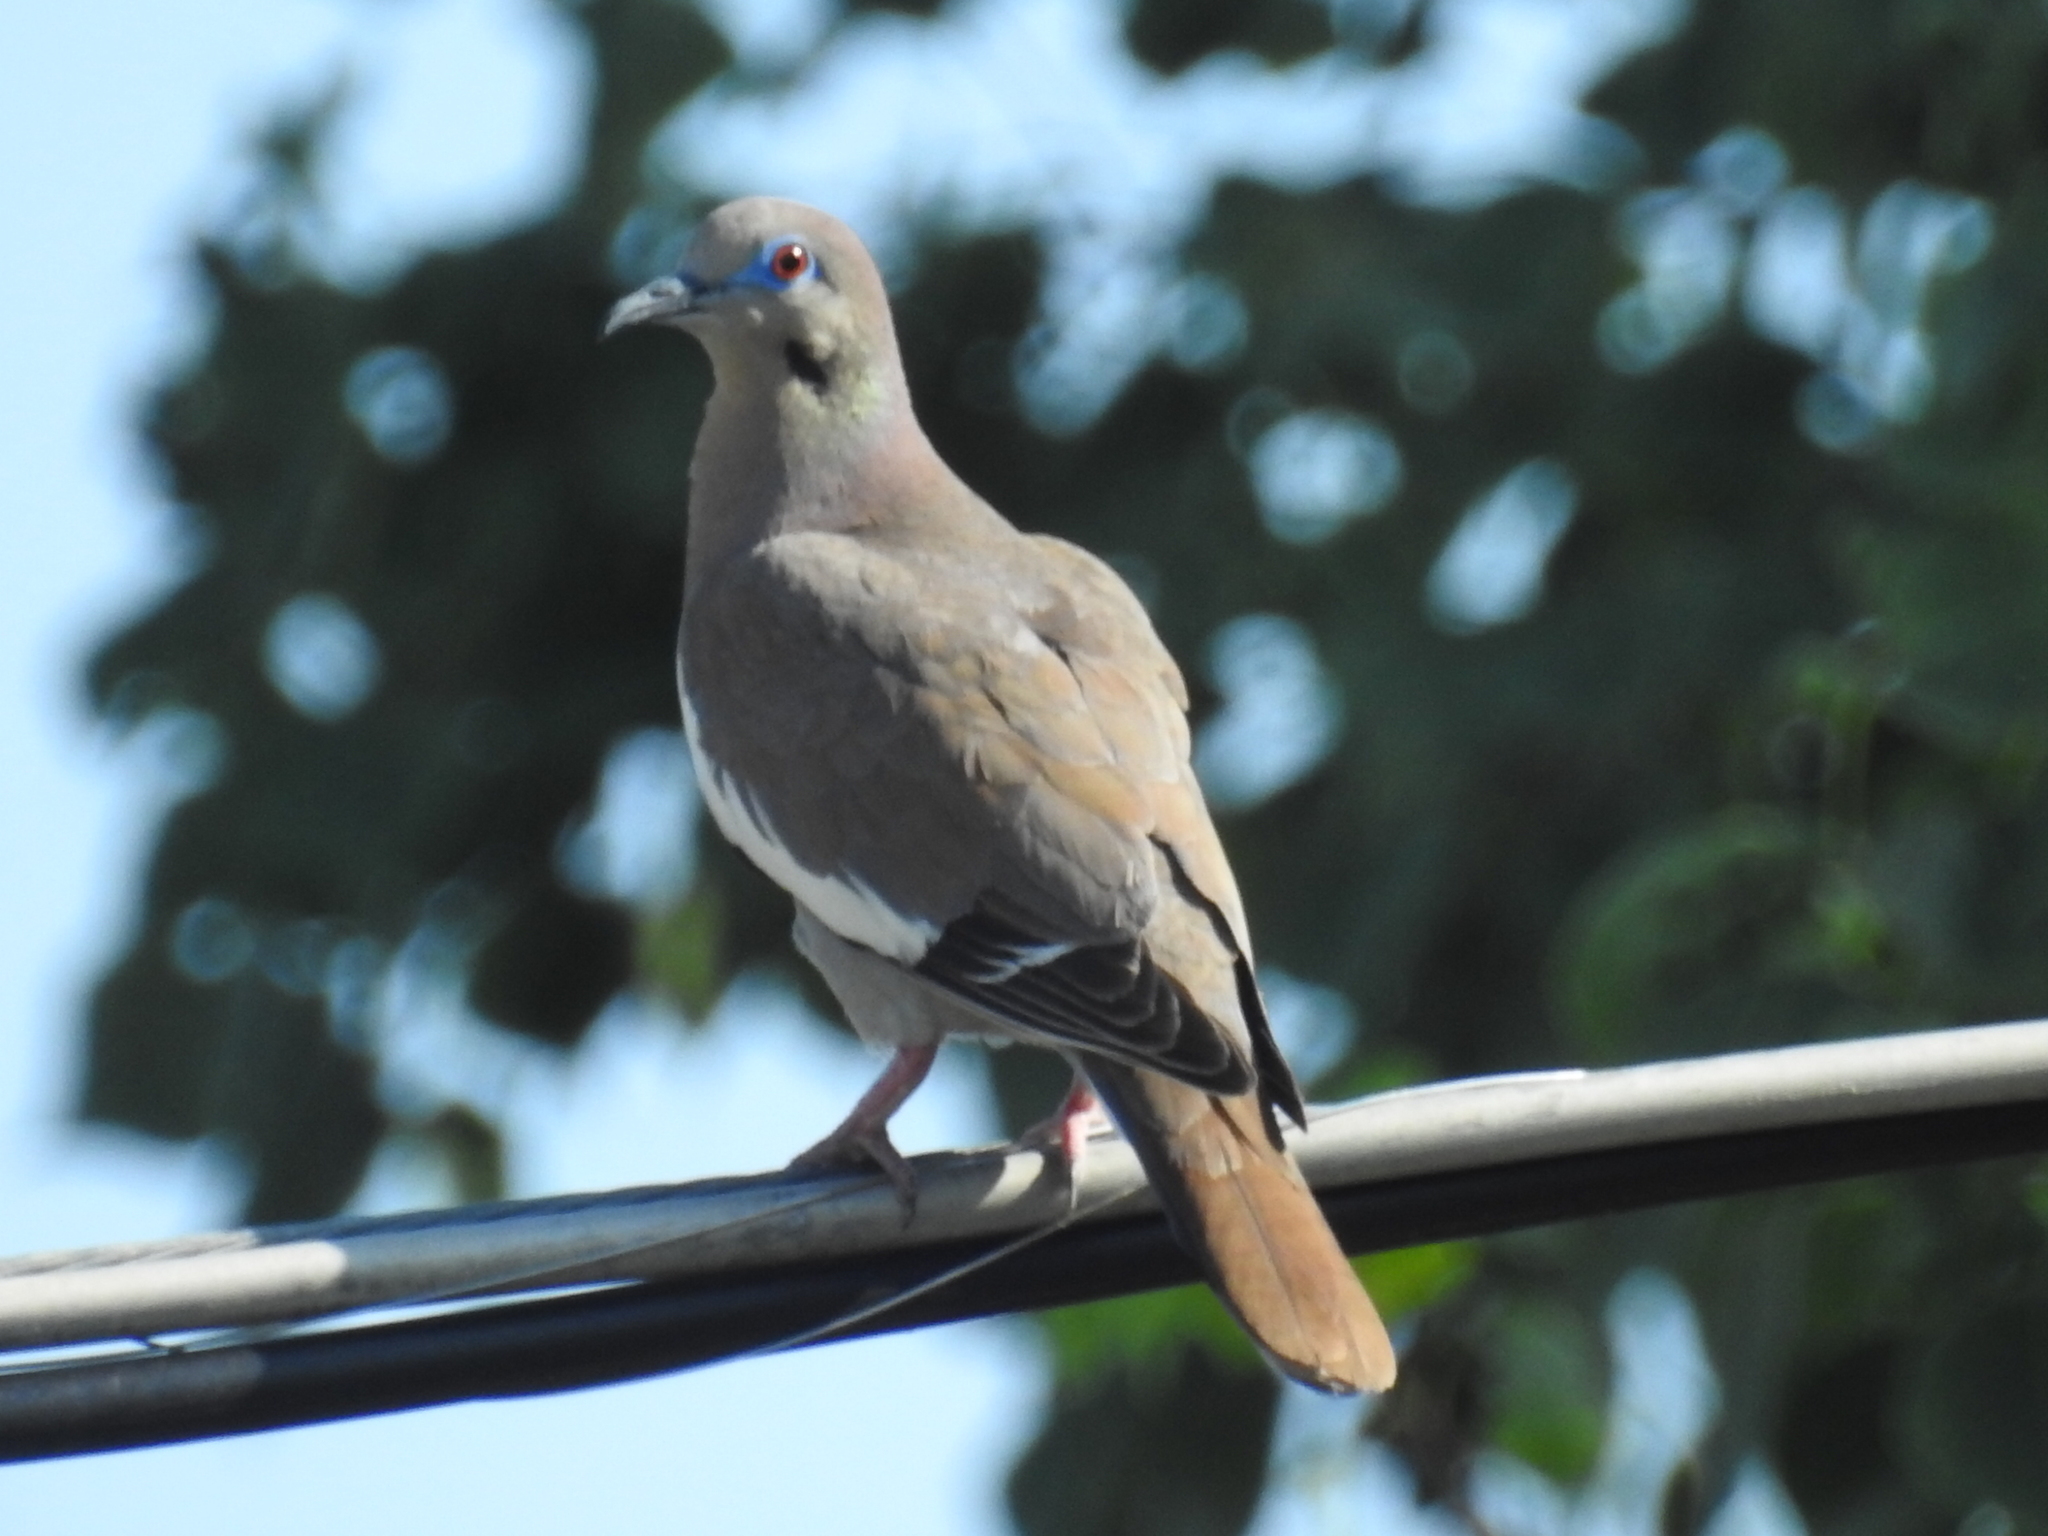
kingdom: Animalia
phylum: Chordata
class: Aves
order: Columbiformes
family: Columbidae
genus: Zenaida
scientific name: Zenaida asiatica
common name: White-winged dove
